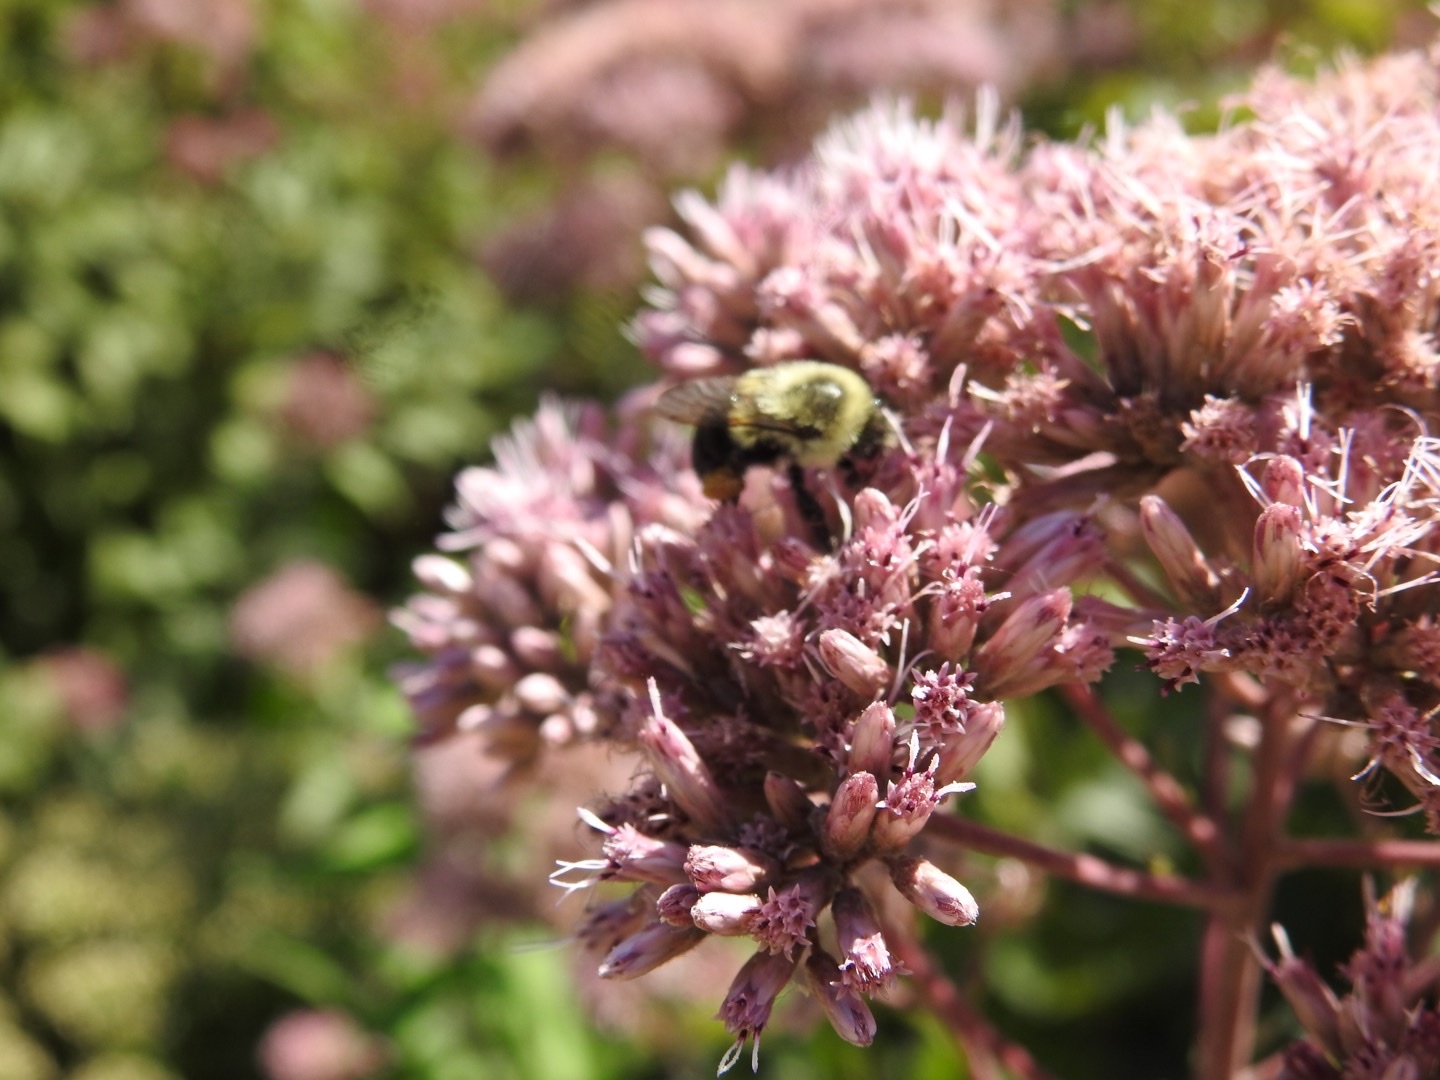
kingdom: Animalia
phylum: Arthropoda
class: Insecta
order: Hymenoptera
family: Apidae
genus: Bombus
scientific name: Bombus impatiens
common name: Common eastern bumble bee
